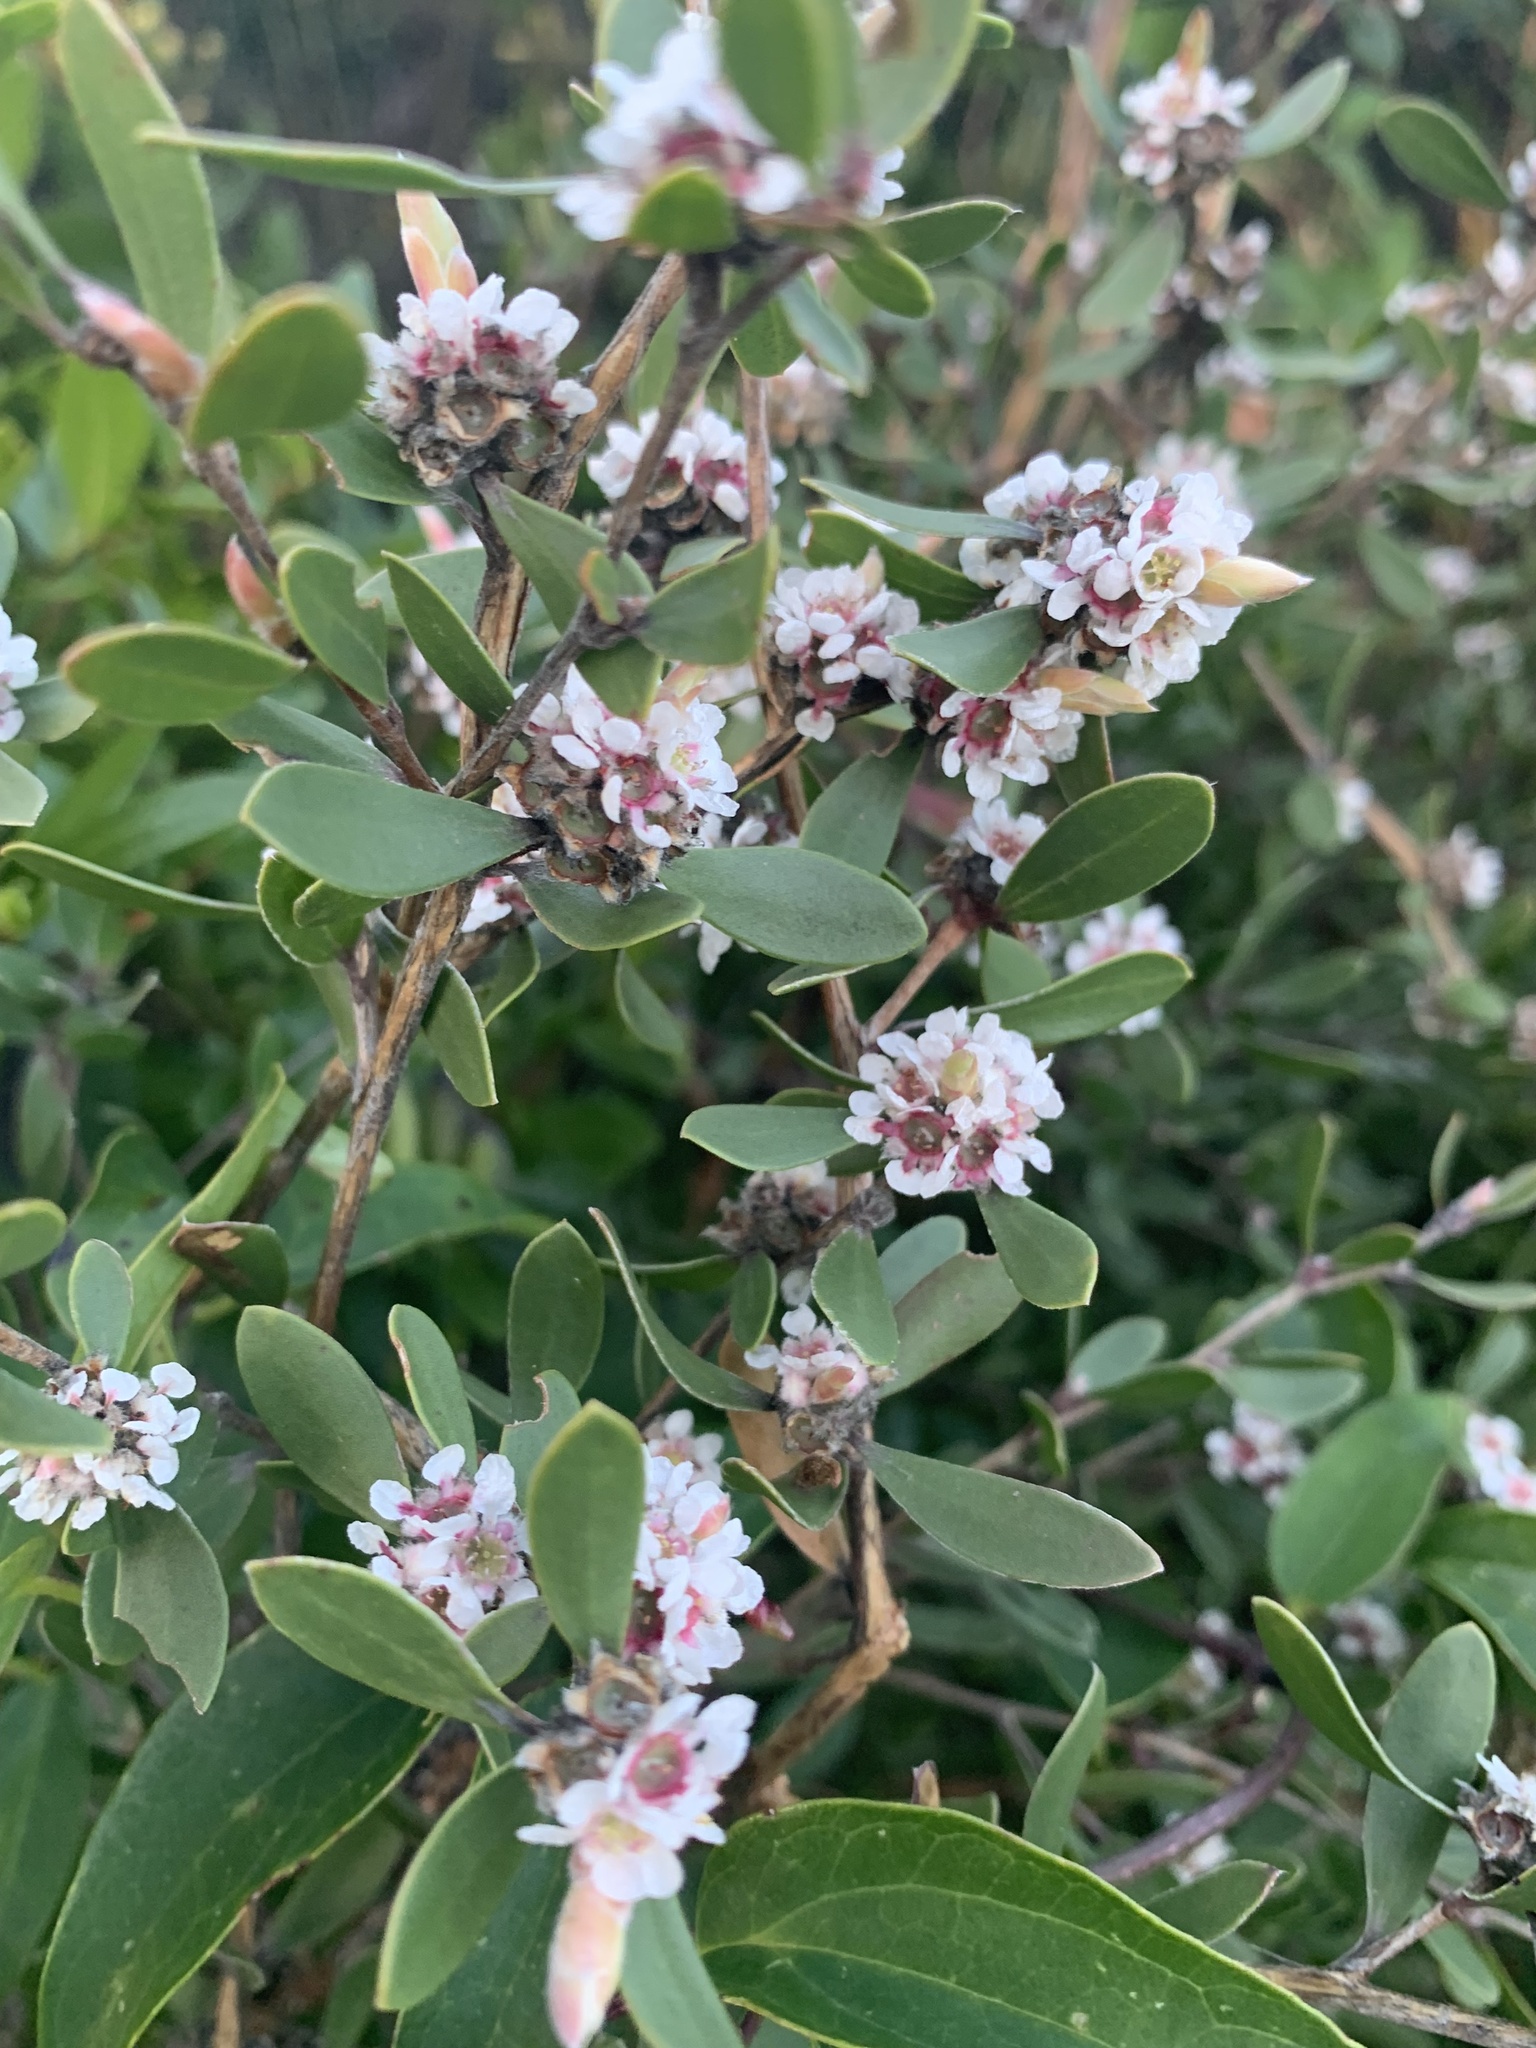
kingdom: Plantae
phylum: Tracheophyta
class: Magnoliopsida
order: Myrtales
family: Myrtaceae
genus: Taxandria
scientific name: Taxandria marginata
